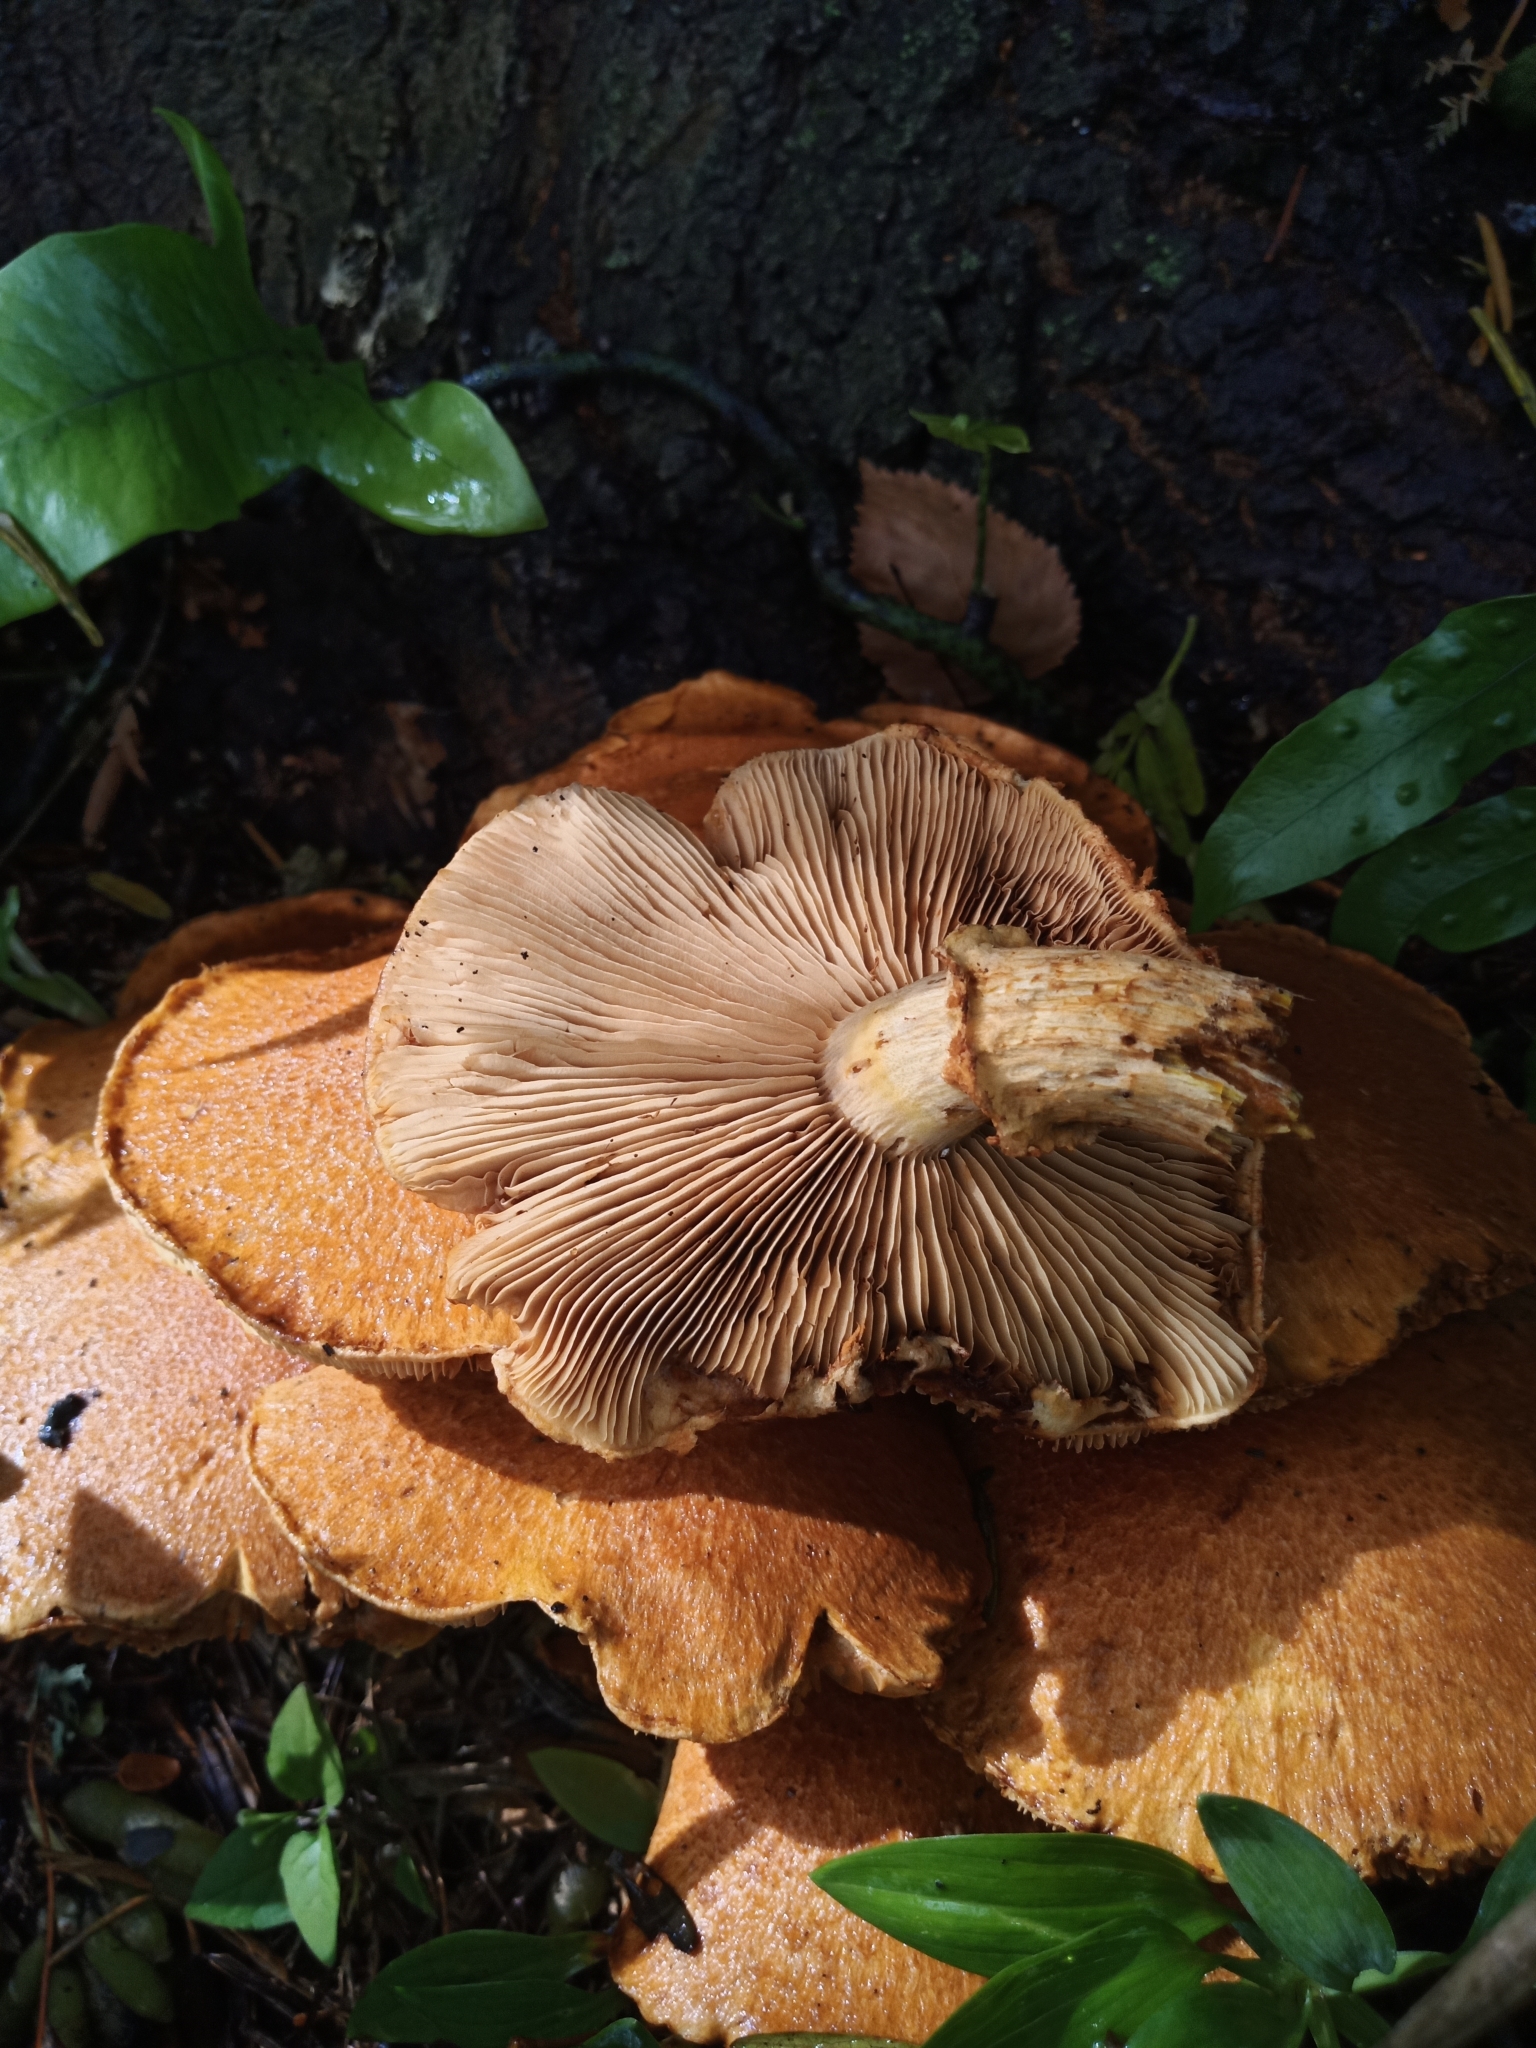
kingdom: Fungi
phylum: Basidiomycota
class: Agaricomycetes
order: Agaricales
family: Hymenogastraceae
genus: Gymnopilus
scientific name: Gymnopilus junonius
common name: Spectacular rustgill
